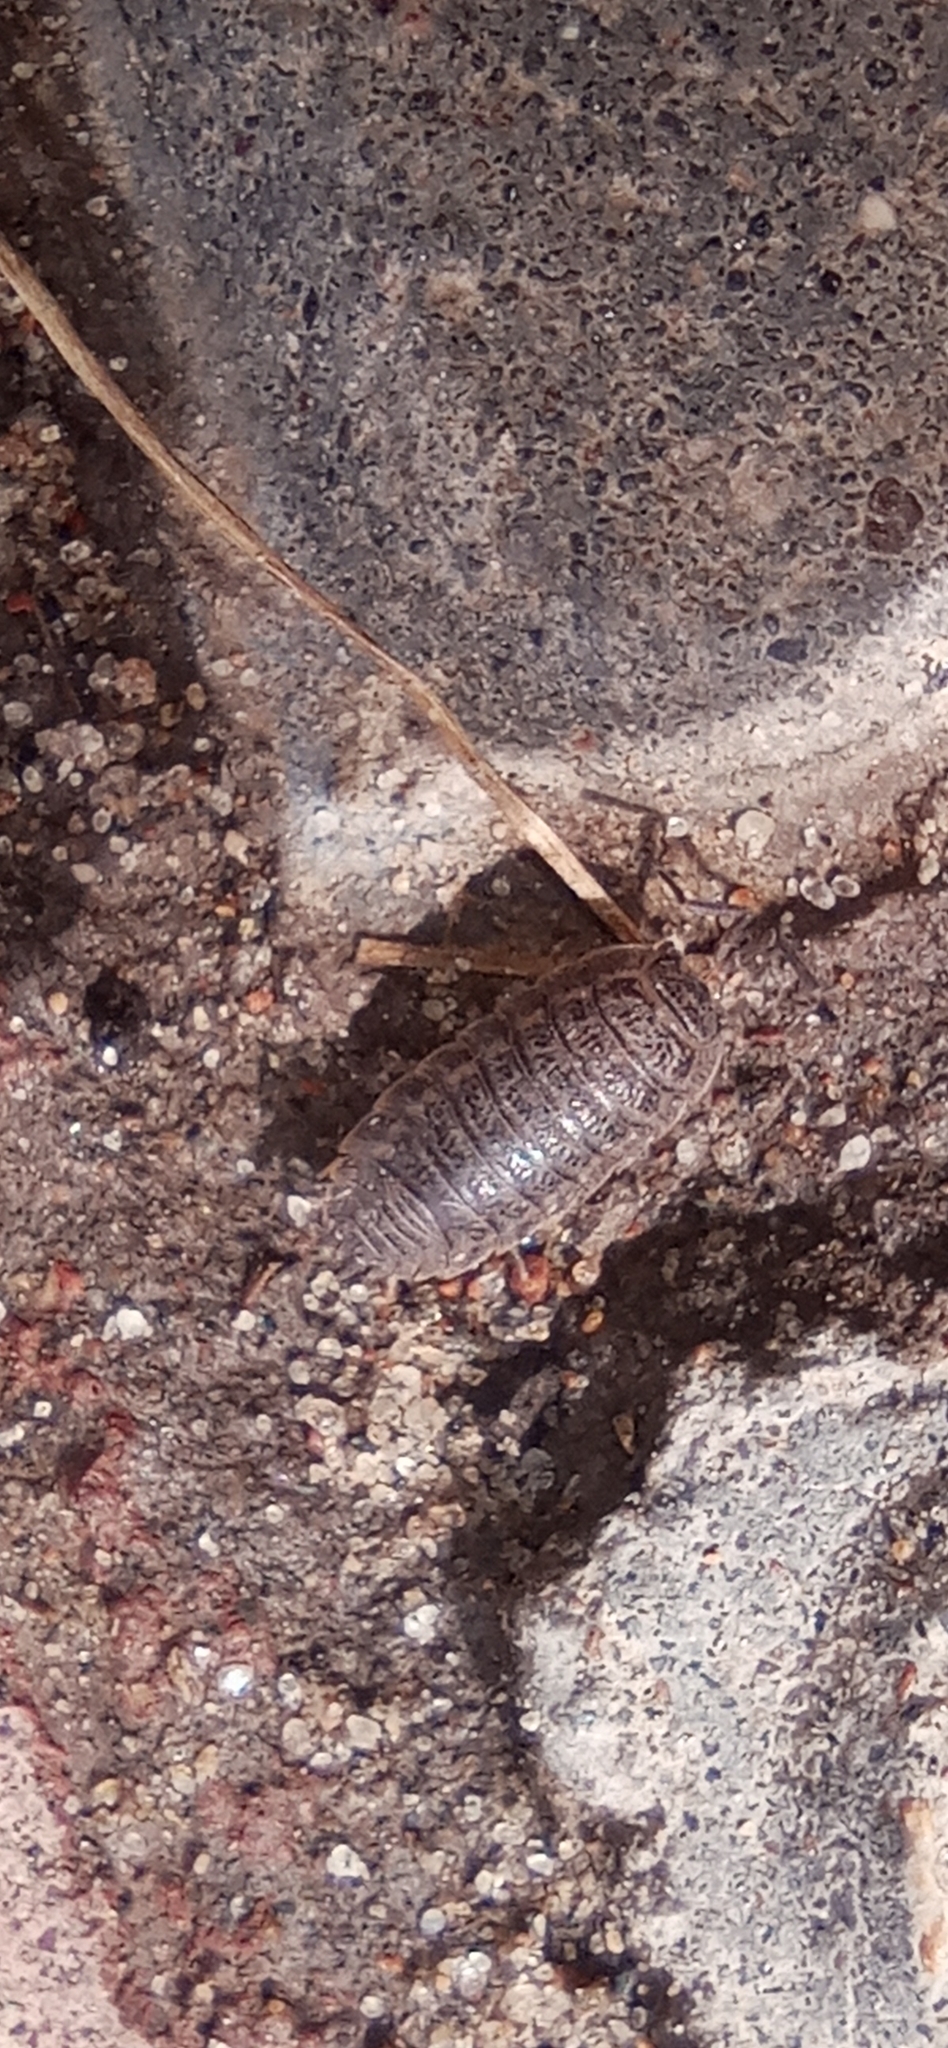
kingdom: Animalia
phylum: Arthropoda
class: Malacostraca
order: Isopoda
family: Trachelipodidae
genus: Trachelipus
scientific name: Trachelipus rathkii
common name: Isopod
